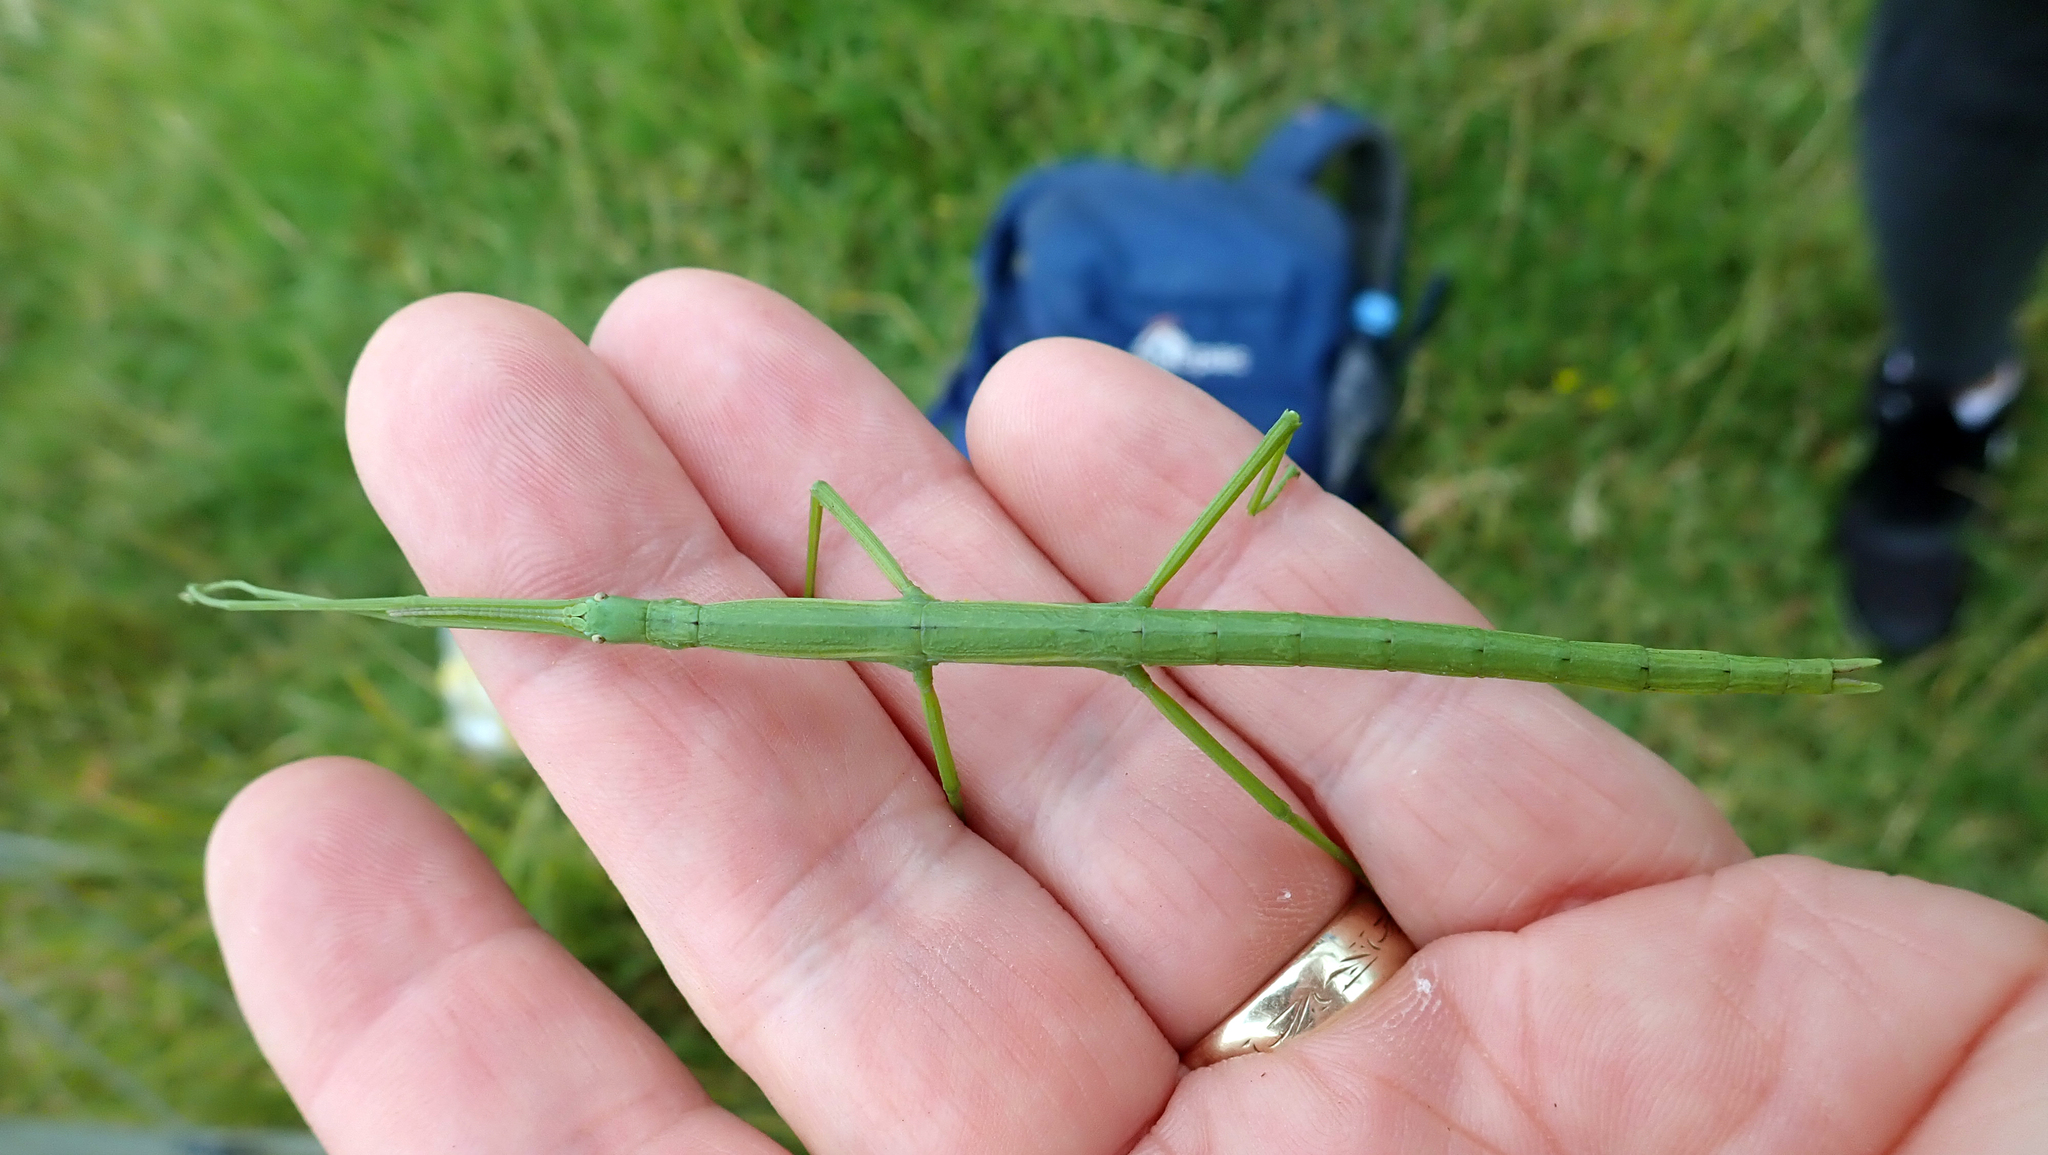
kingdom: Animalia
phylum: Arthropoda
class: Insecta
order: Phasmida
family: Phasmatidae
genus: Clitarchus
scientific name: Clitarchus hookeri
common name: Smooth stick insect
